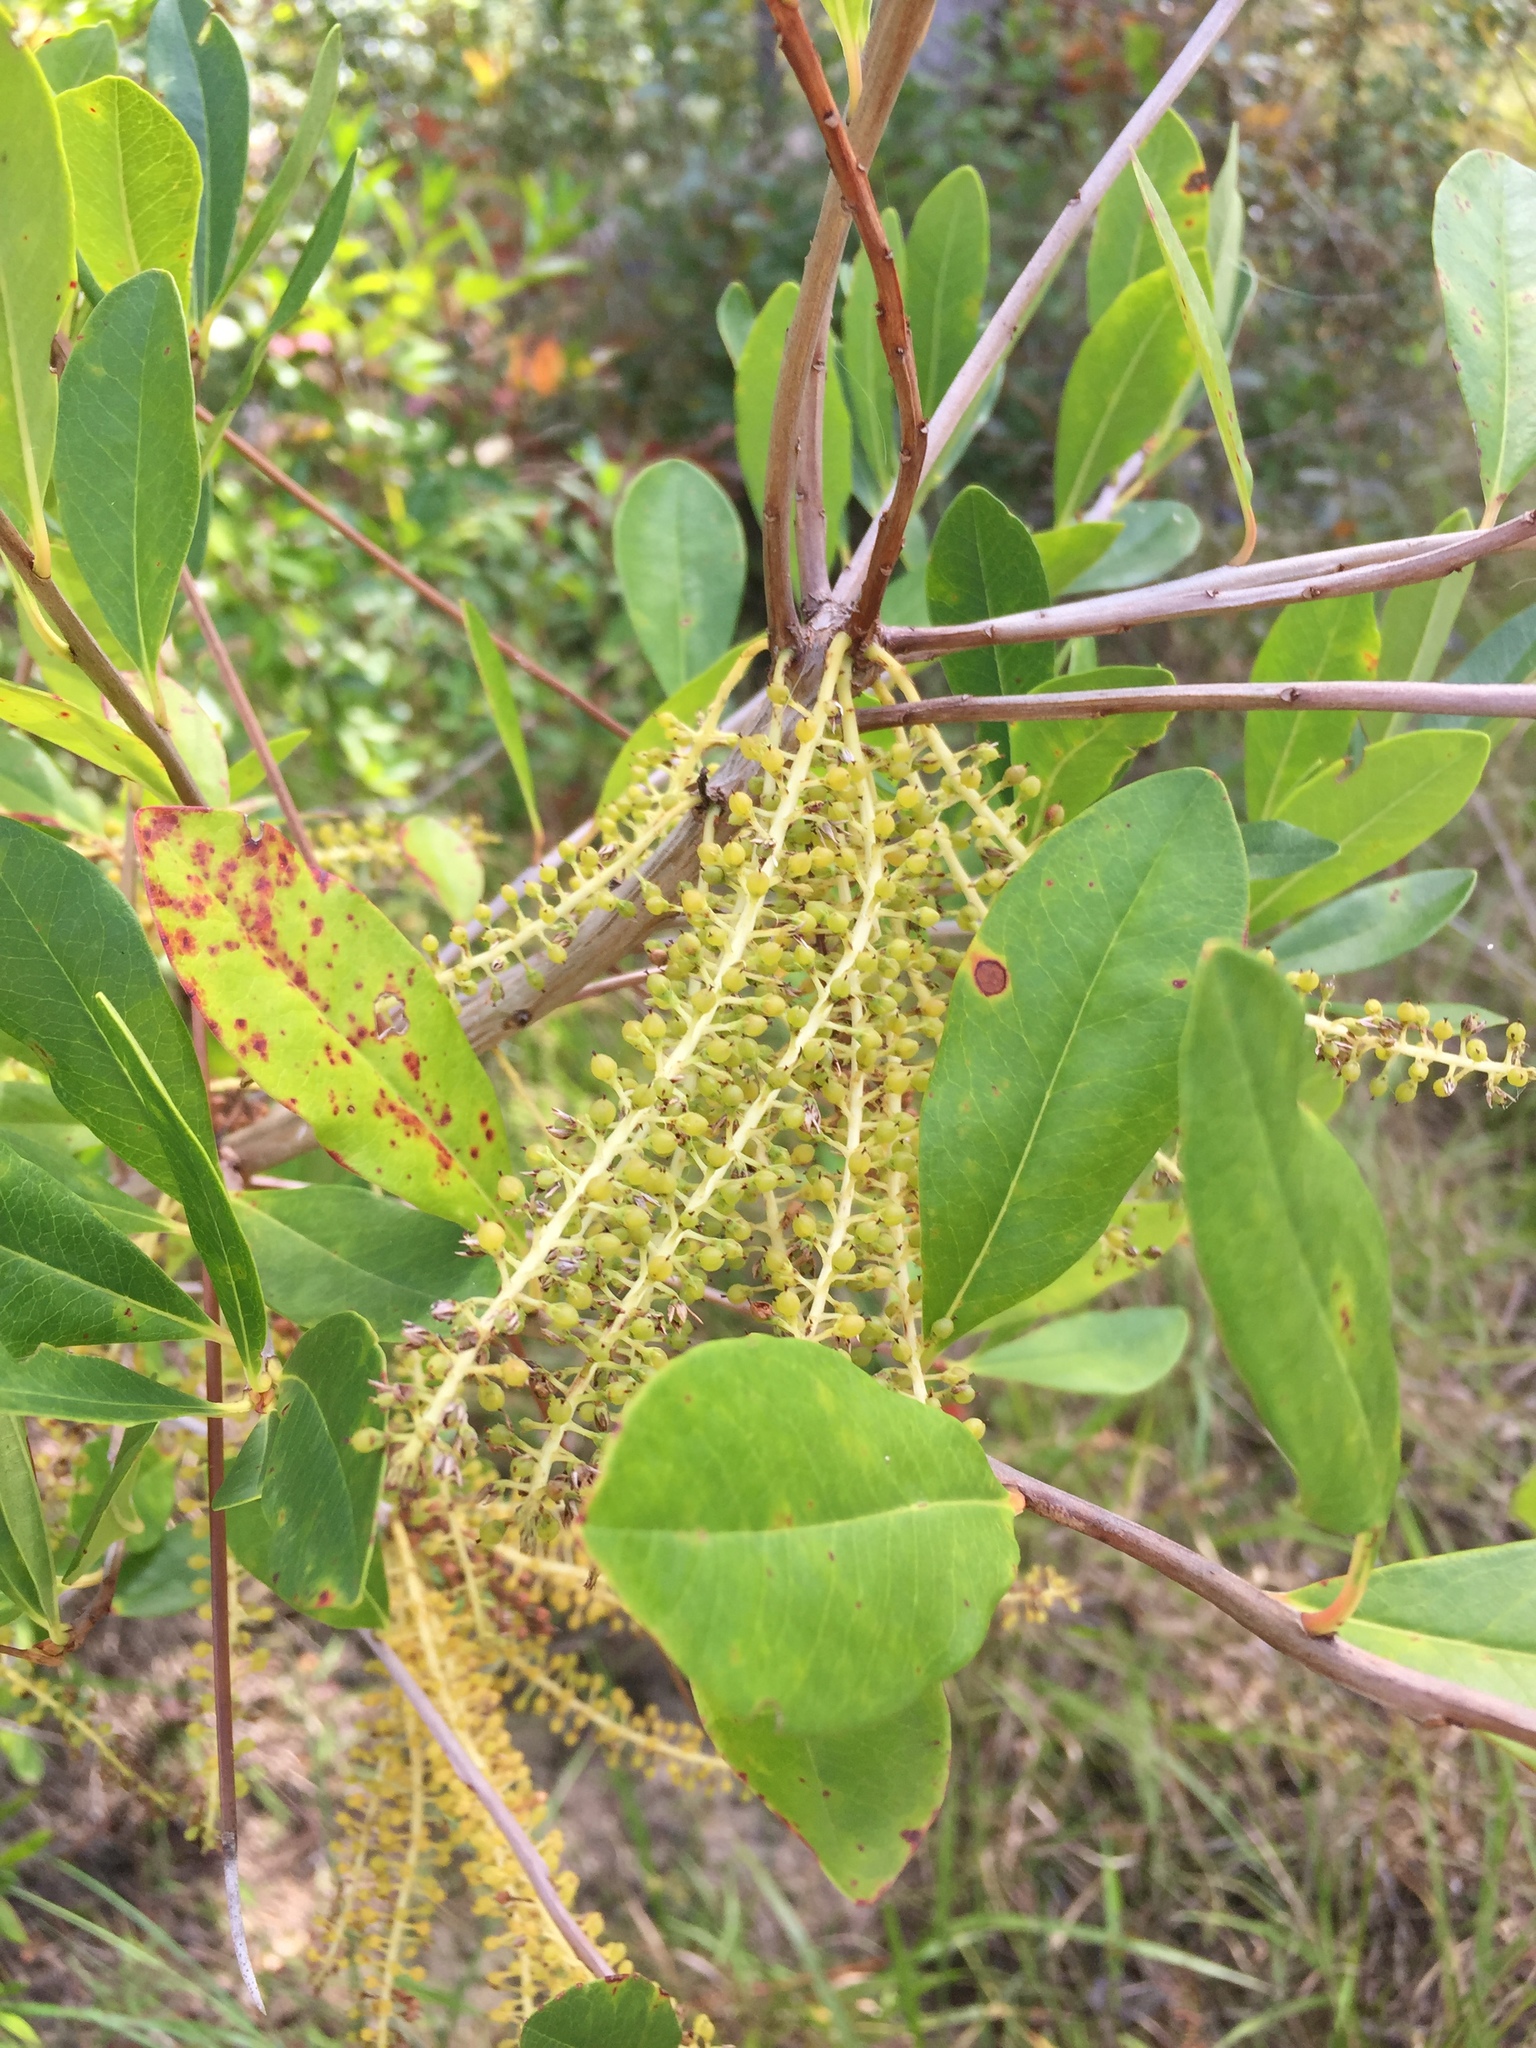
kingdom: Plantae
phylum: Tracheophyta
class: Magnoliopsida
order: Ericales
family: Cyrillaceae
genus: Cyrilla
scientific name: Cyrilla racemiflora
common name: Black titi
